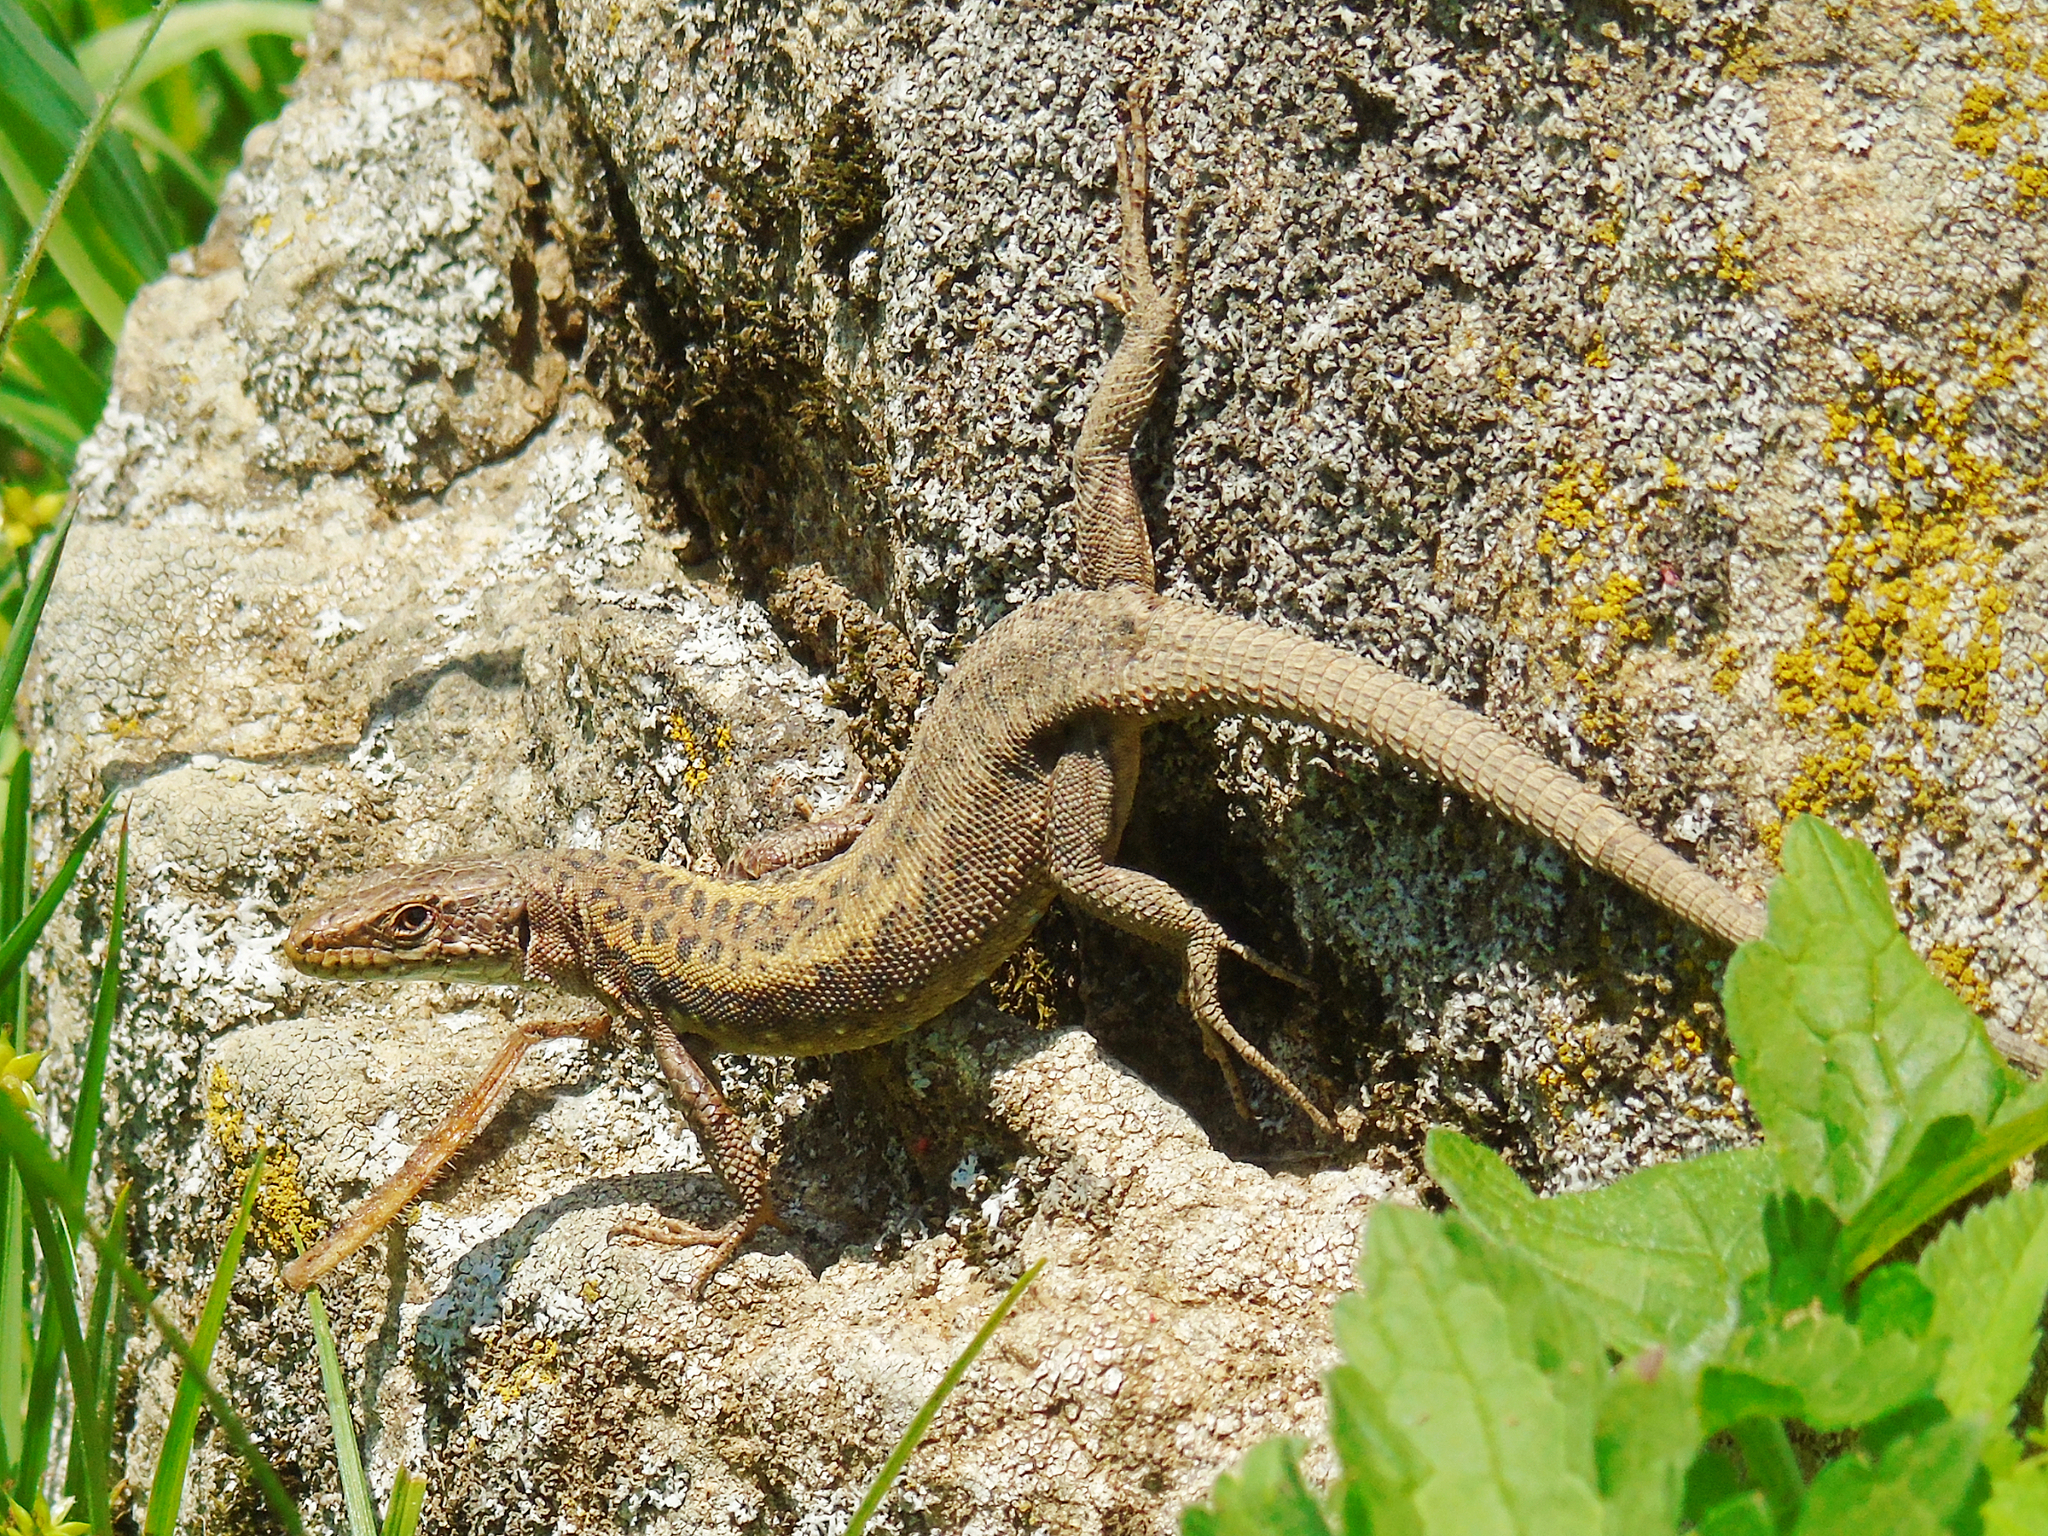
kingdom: Animalia
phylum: Chordata
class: Squamata
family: Lacertidae
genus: Darevskia
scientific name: Darevskia rudis
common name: Spiny-tailed lizard
